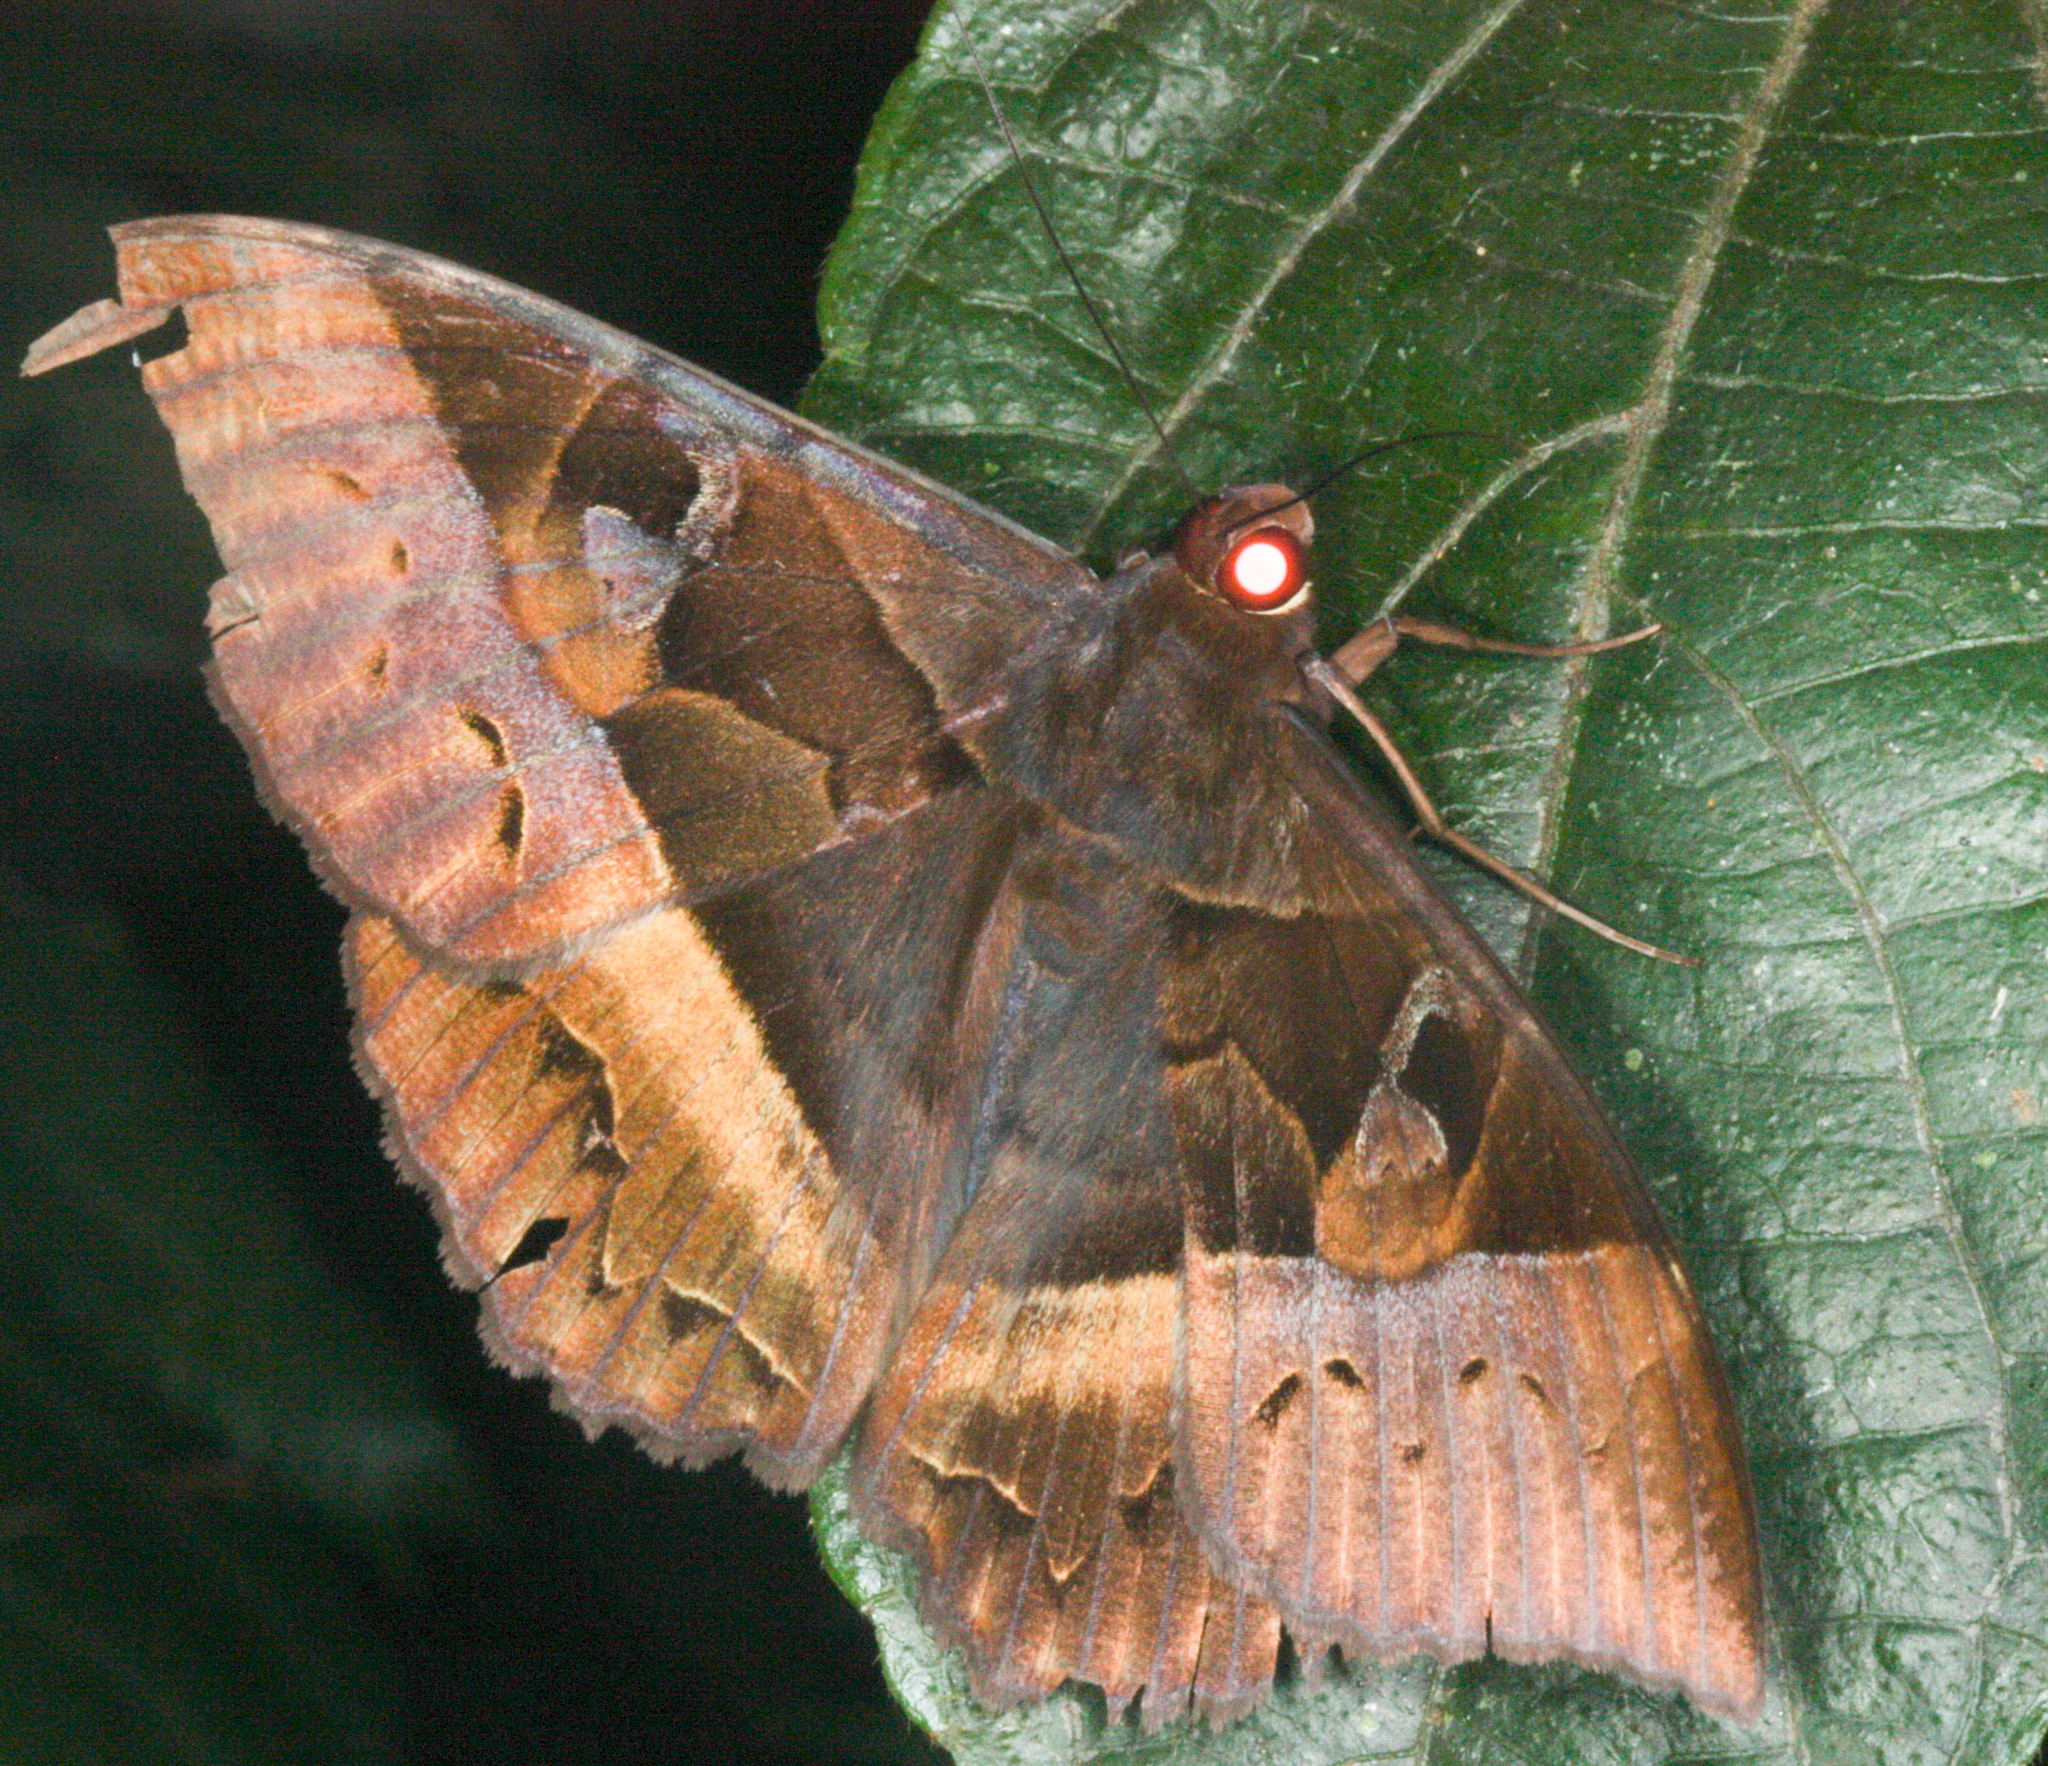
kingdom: Animalia
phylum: Arthropoda
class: Insecta
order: Lepidoptera
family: Erebidae
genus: Cyligramma
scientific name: Cyligramma fluctuosa
